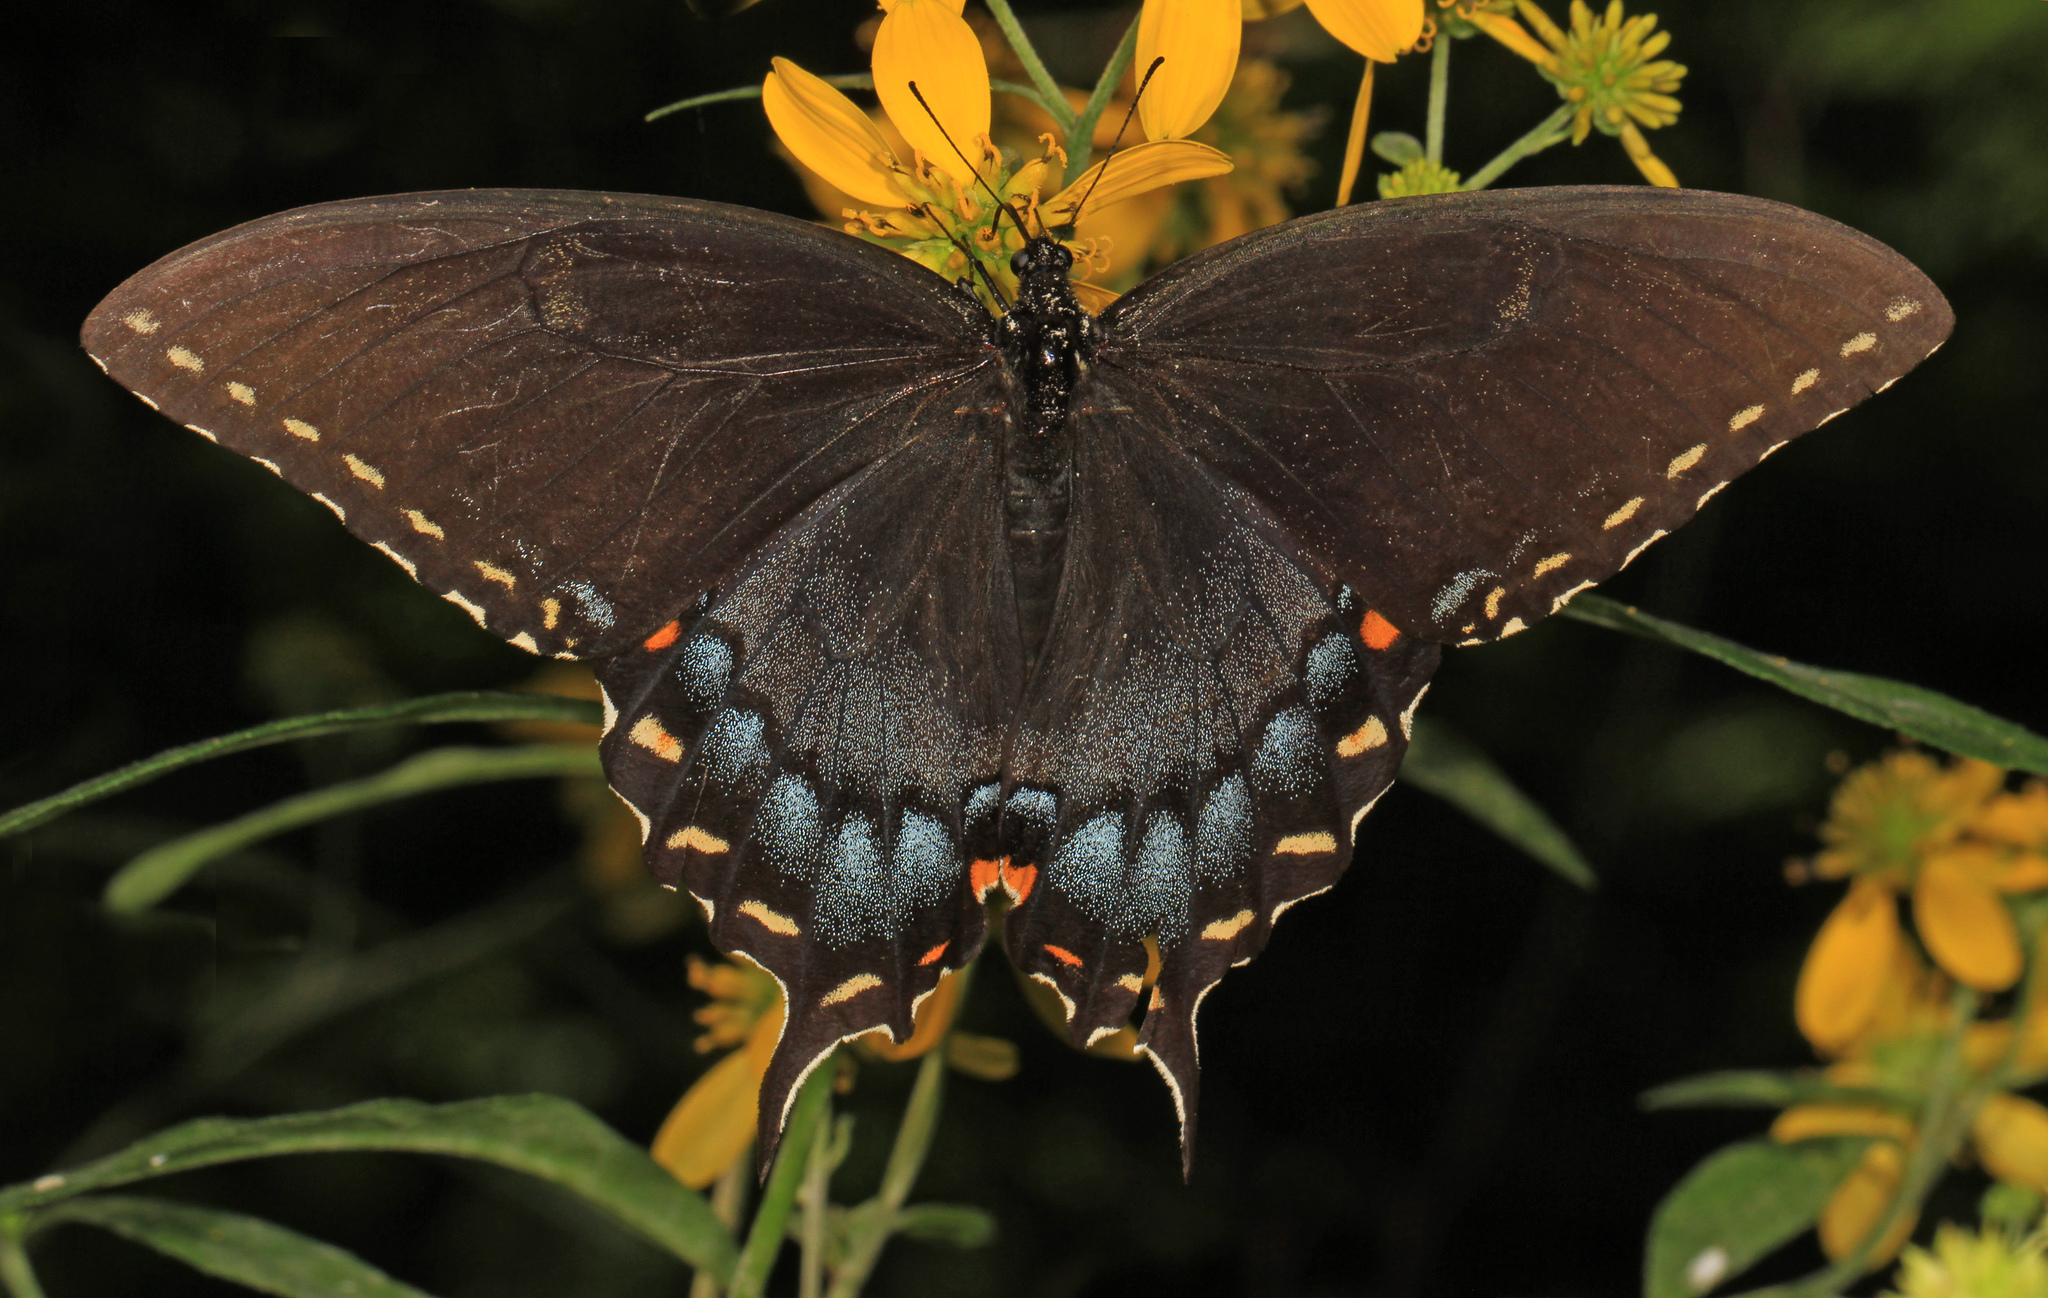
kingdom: Animalia
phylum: Arthropoda
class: Insecta
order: Lepidoptera
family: Papilionidae
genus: Papilio
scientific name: Papilio glaucus
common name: Tiger swallowtail
